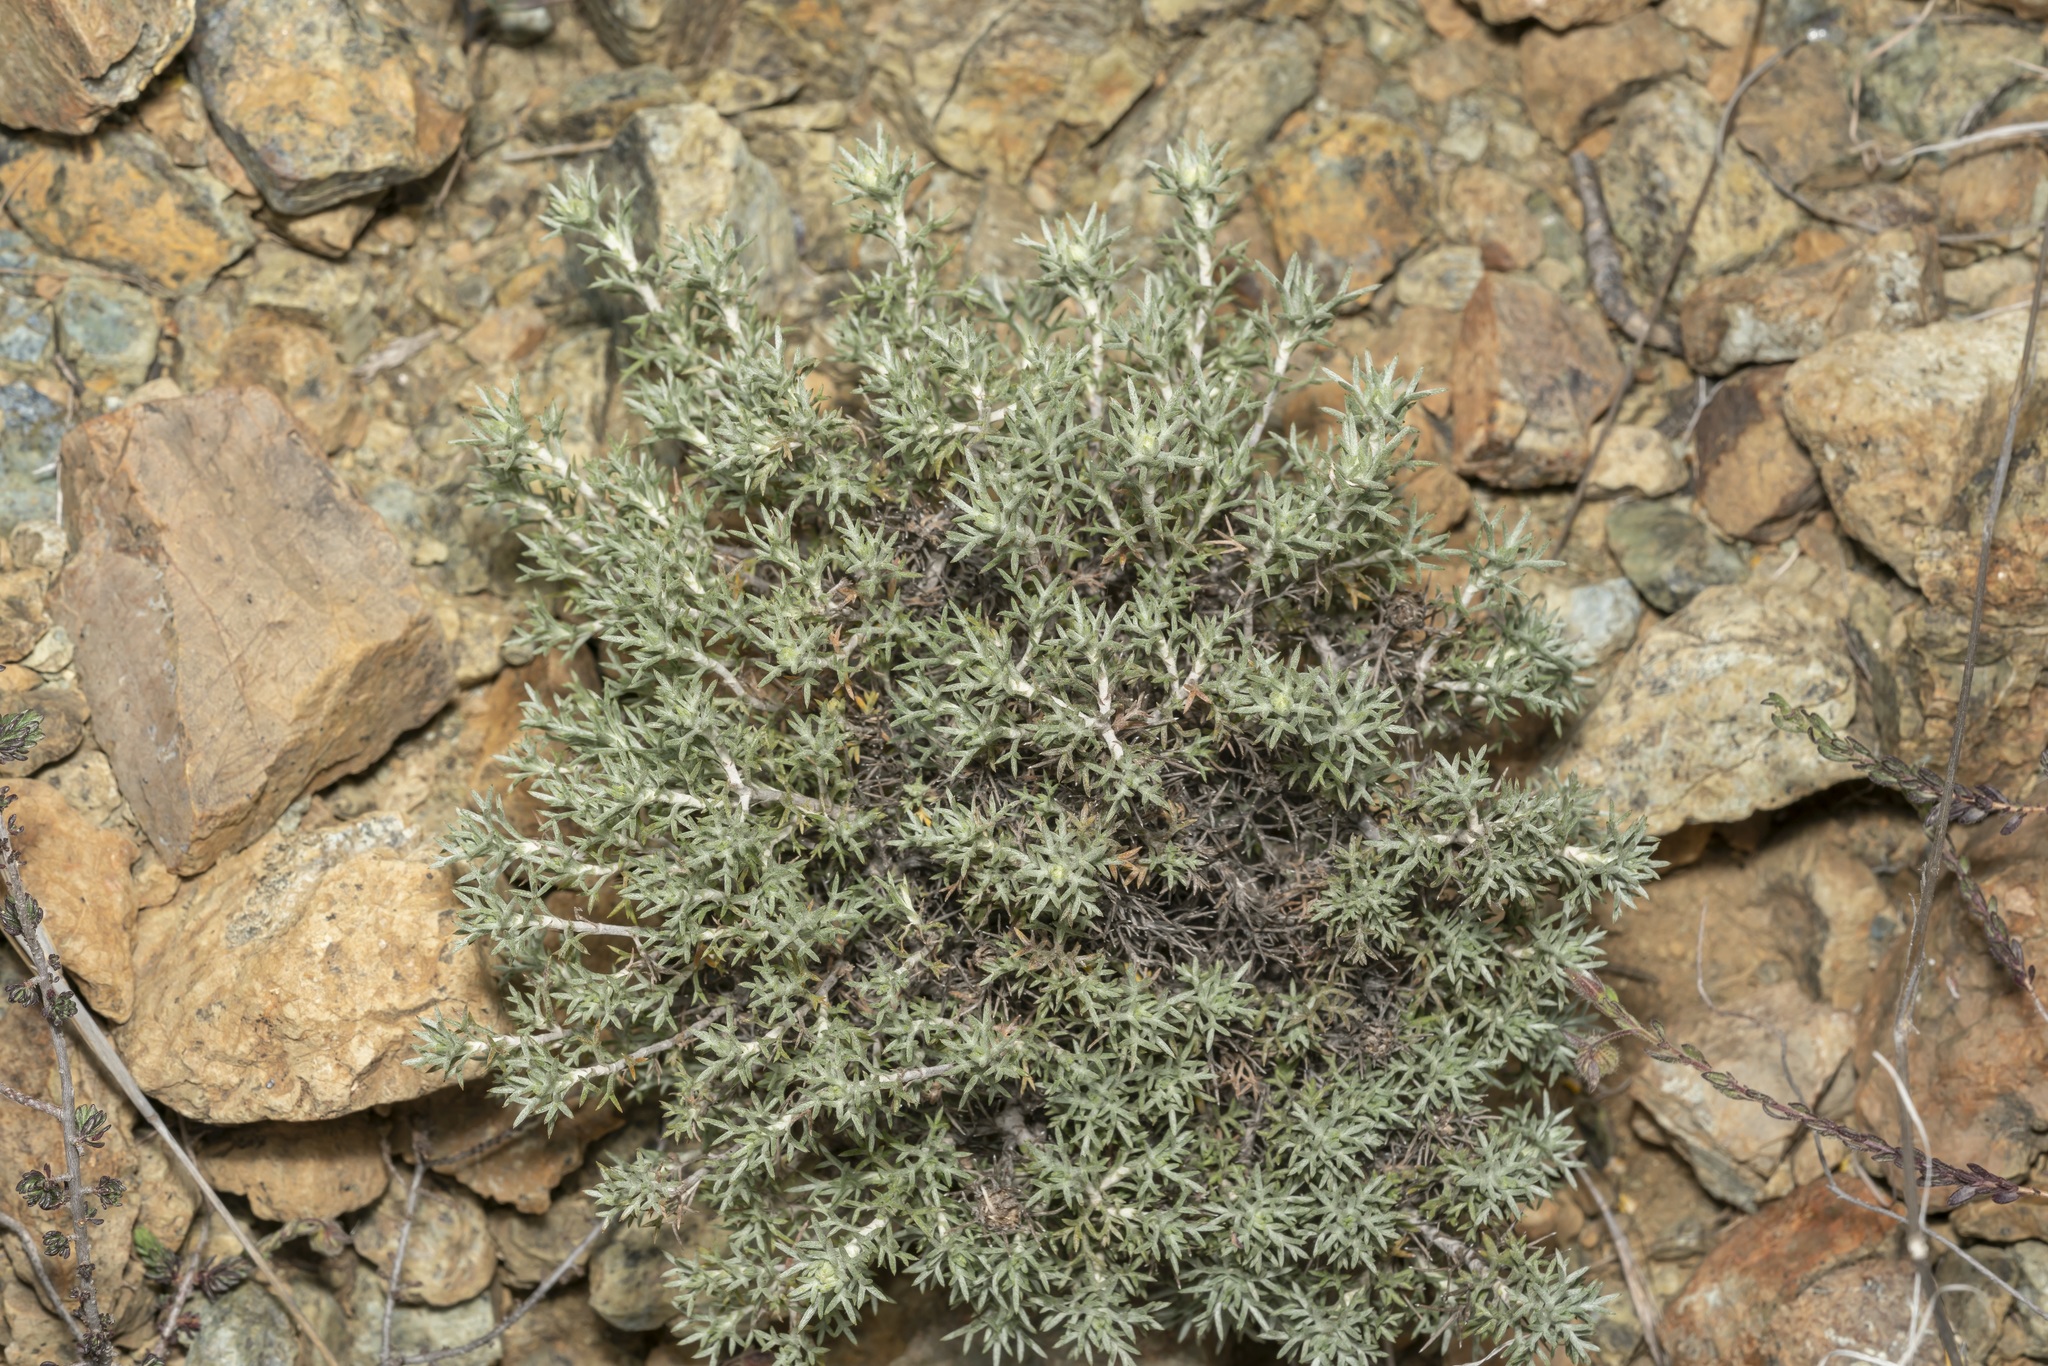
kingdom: Plantae
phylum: Tracheophyta
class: Magnoliopsida
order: Asterales
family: Asteraceae
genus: Anthemis
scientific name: Anthemis rhodensis
